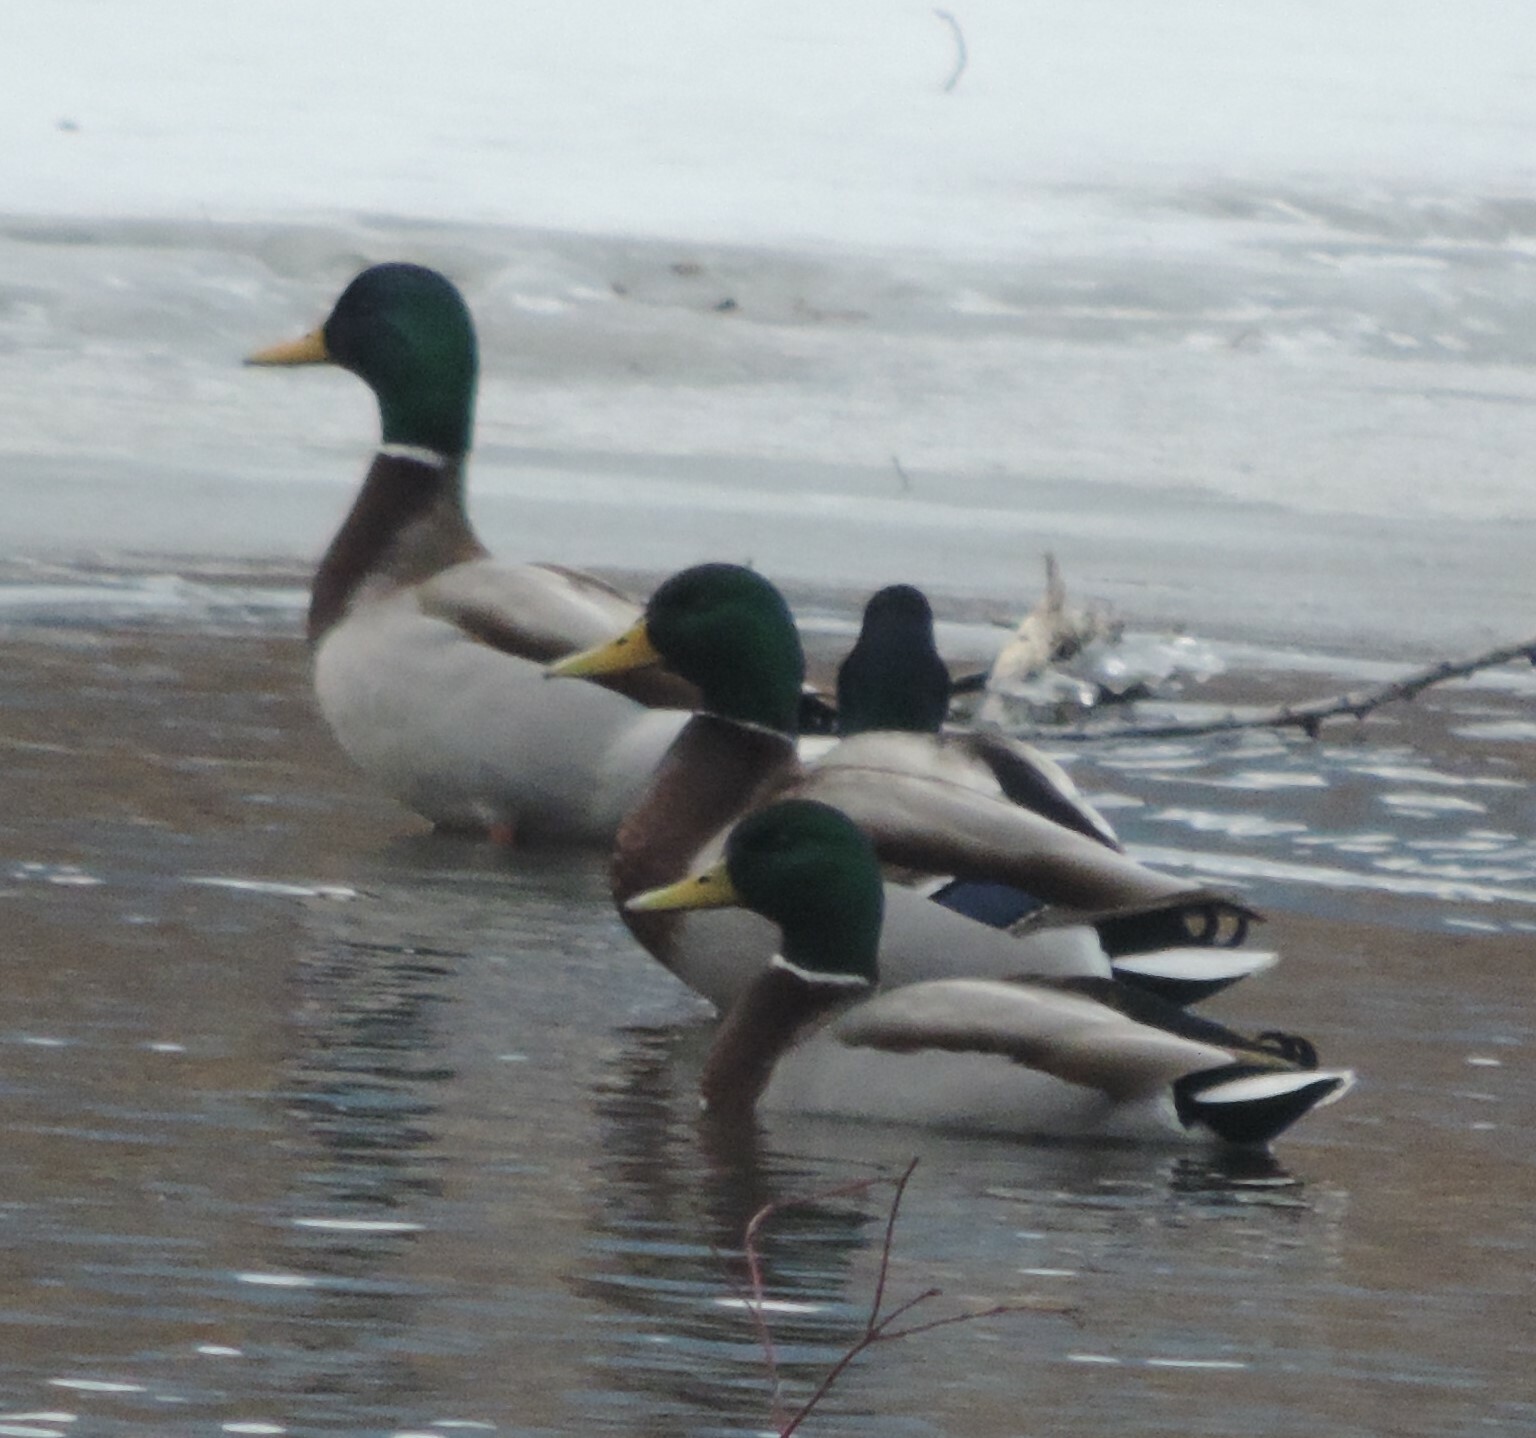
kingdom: Animalia
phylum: Chordata
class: Aves
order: Anseriformes
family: Anatidae
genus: Anas
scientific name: Anas platyrhynchos
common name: Mallard
